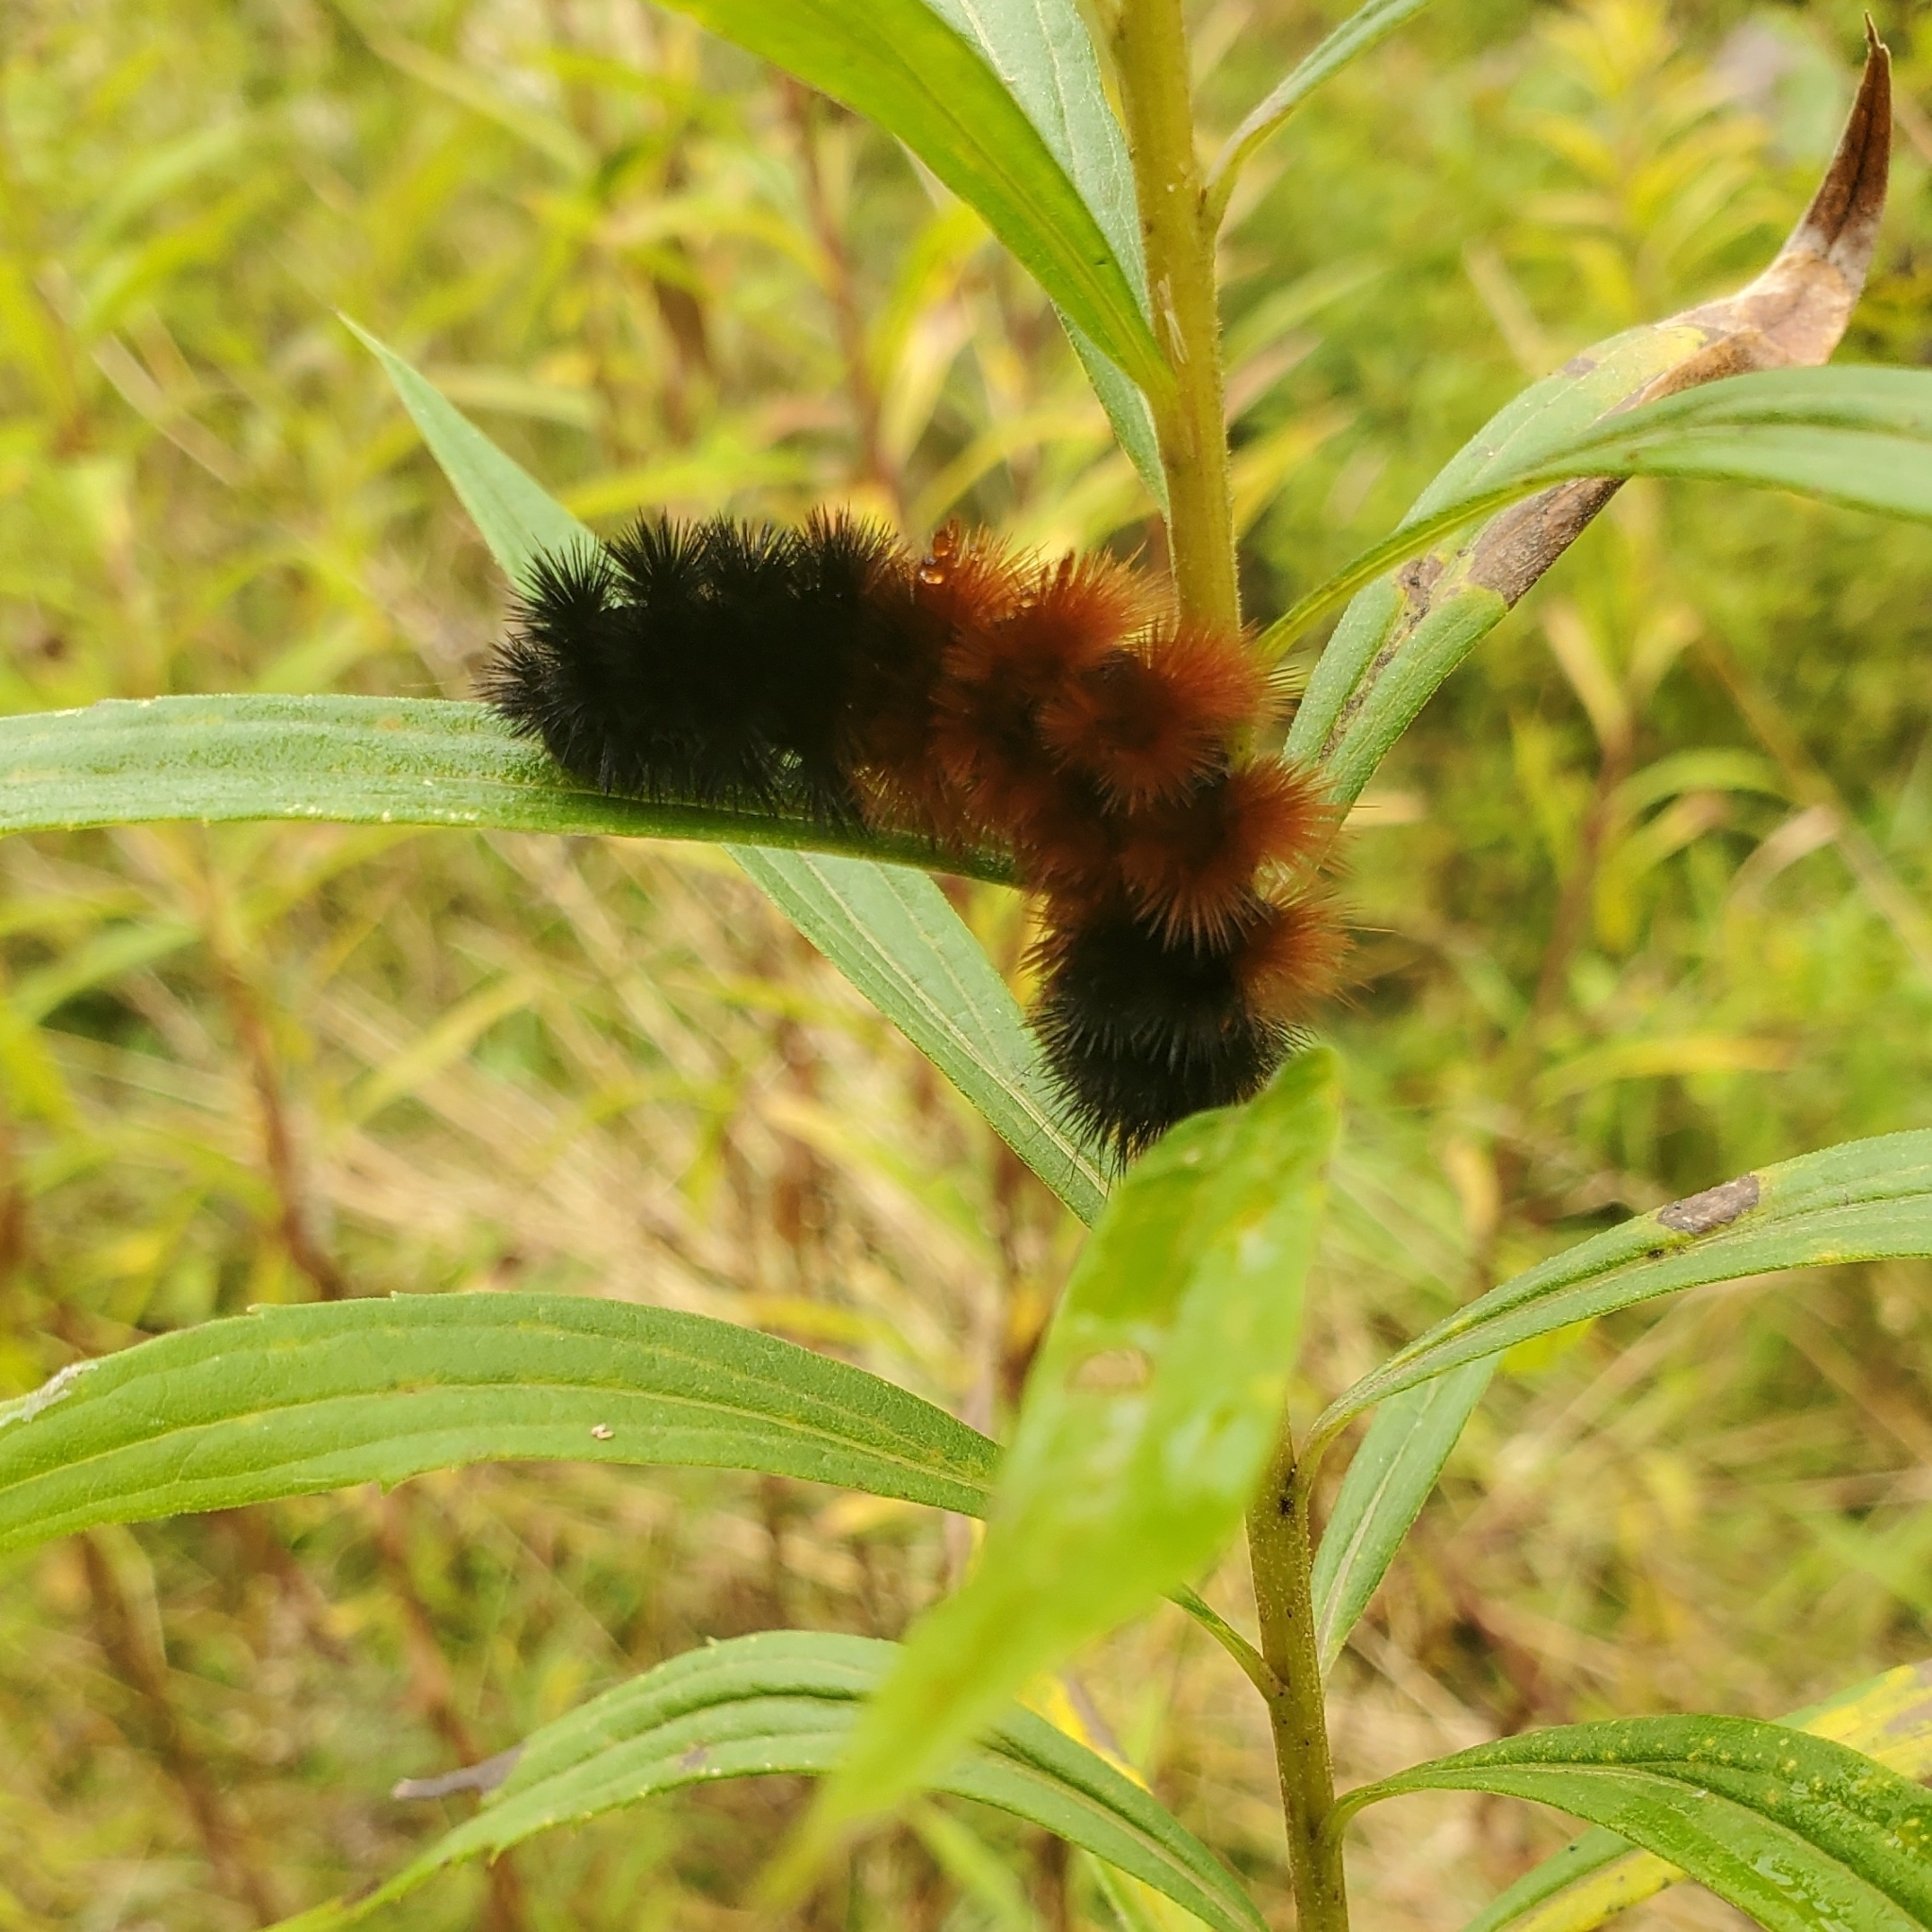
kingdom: Animalia
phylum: Arthropoda
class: Insecta
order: Lepidoptera
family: Erebidae
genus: Pyrrharctia
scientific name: Pyrrharctia isabella
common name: Isabella tiger moth
